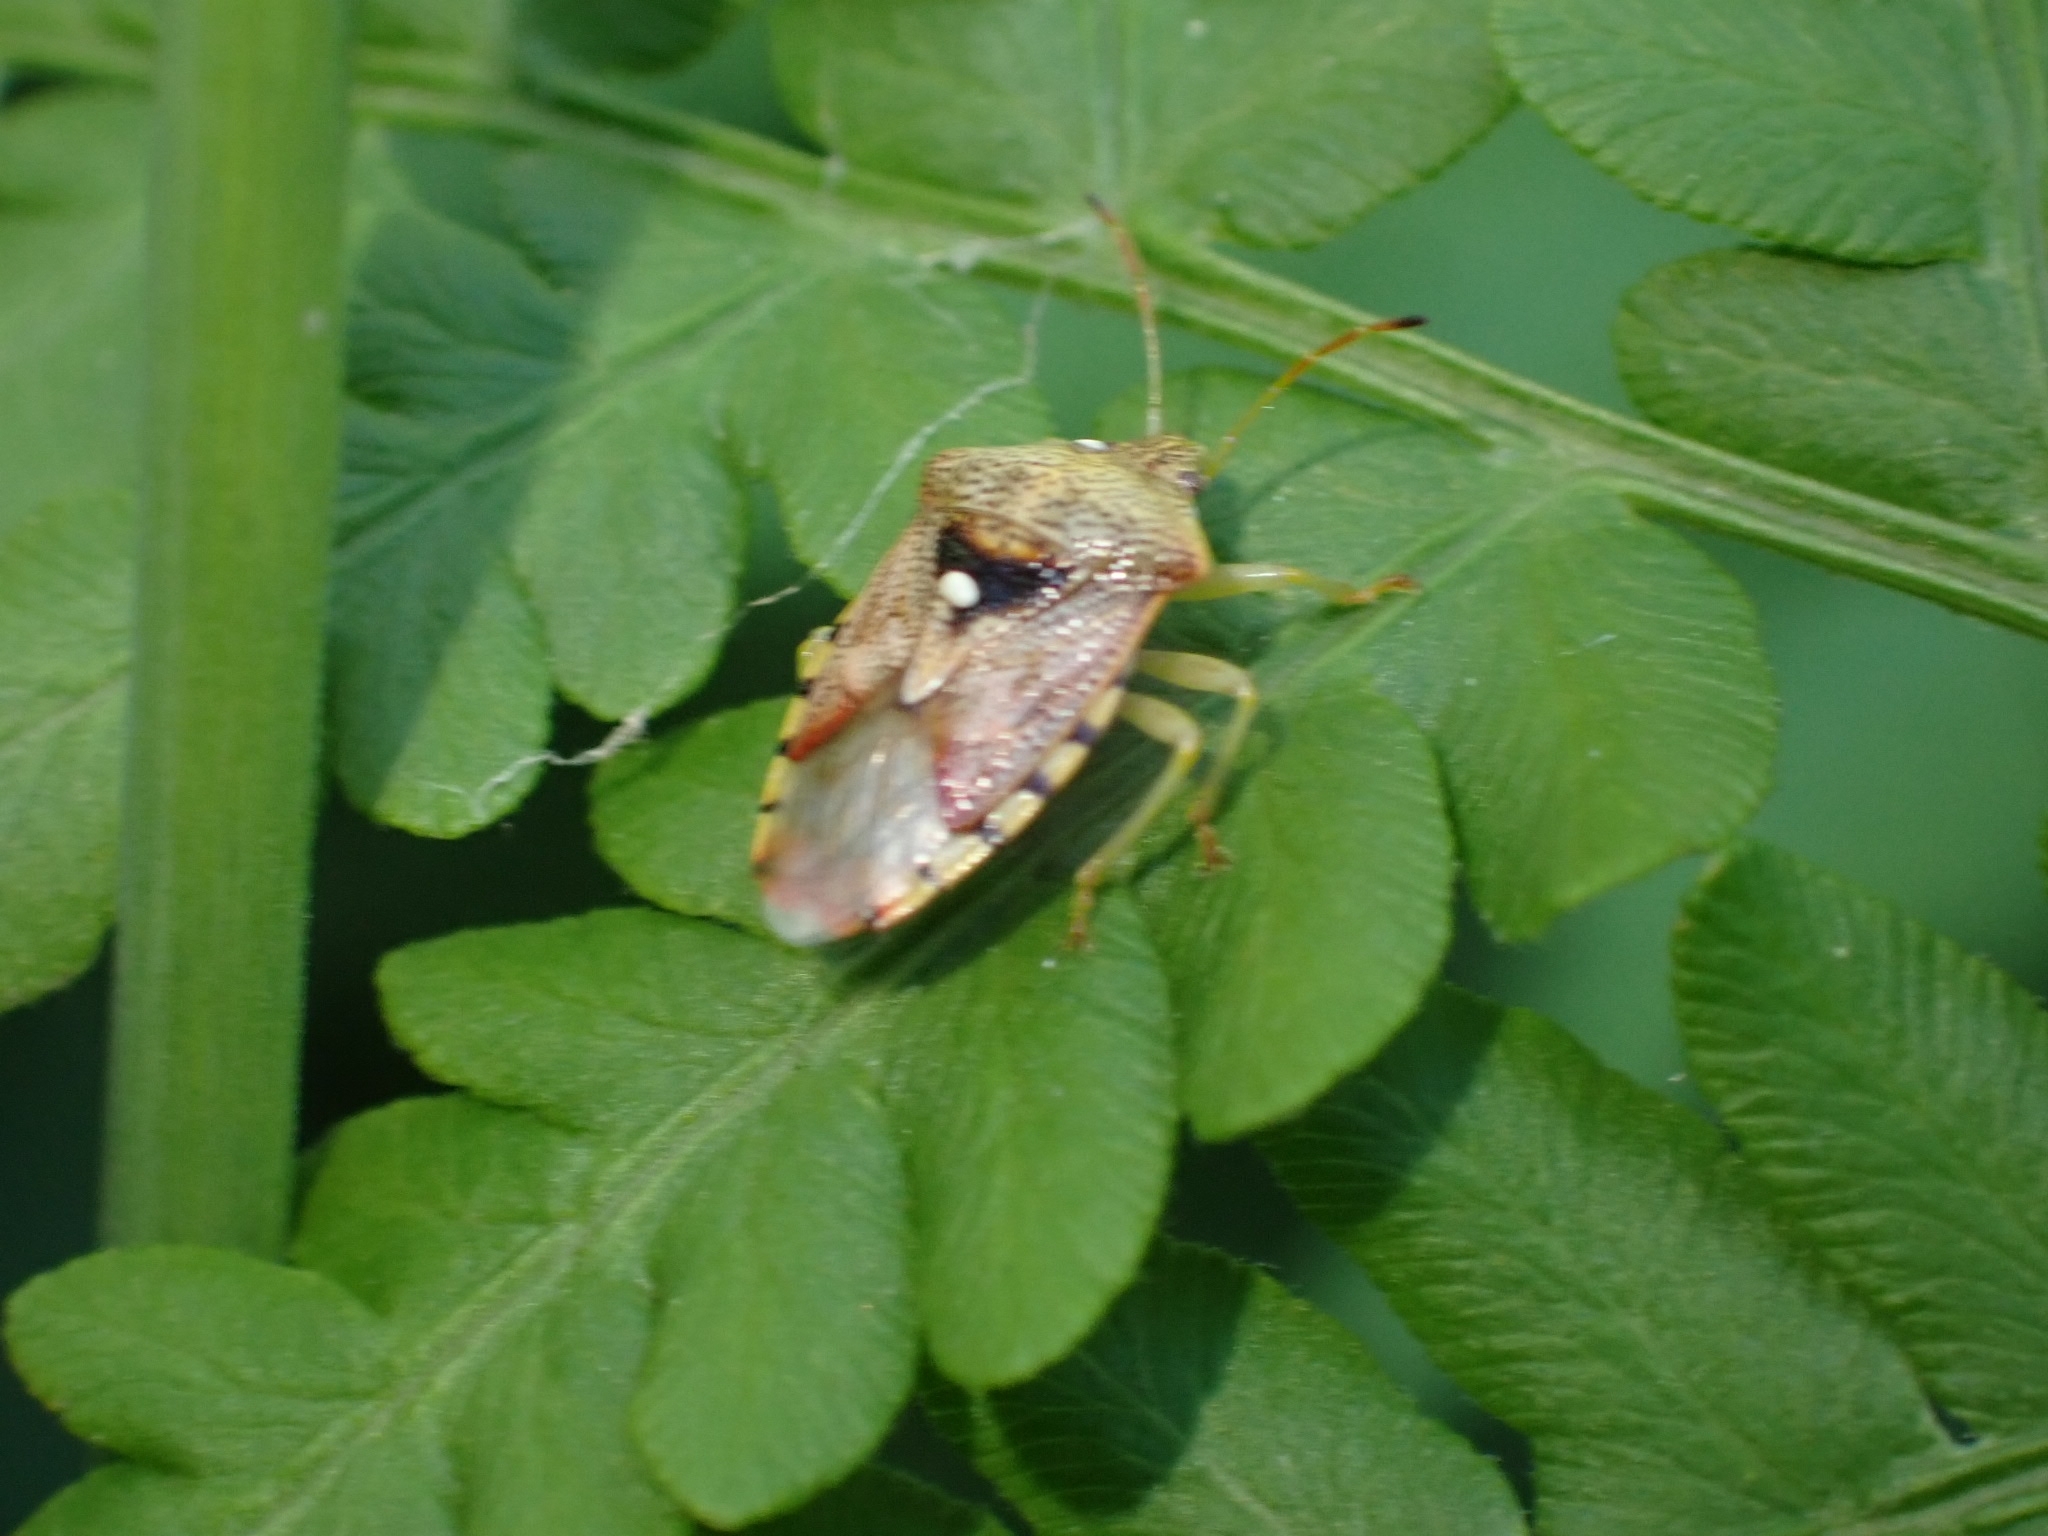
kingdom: Animalia
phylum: Arthropoda
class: Insecta
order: Hemiptera
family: Acanthosomatidae
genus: Elasmucha
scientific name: Elasmucha grisea
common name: Parent bug
